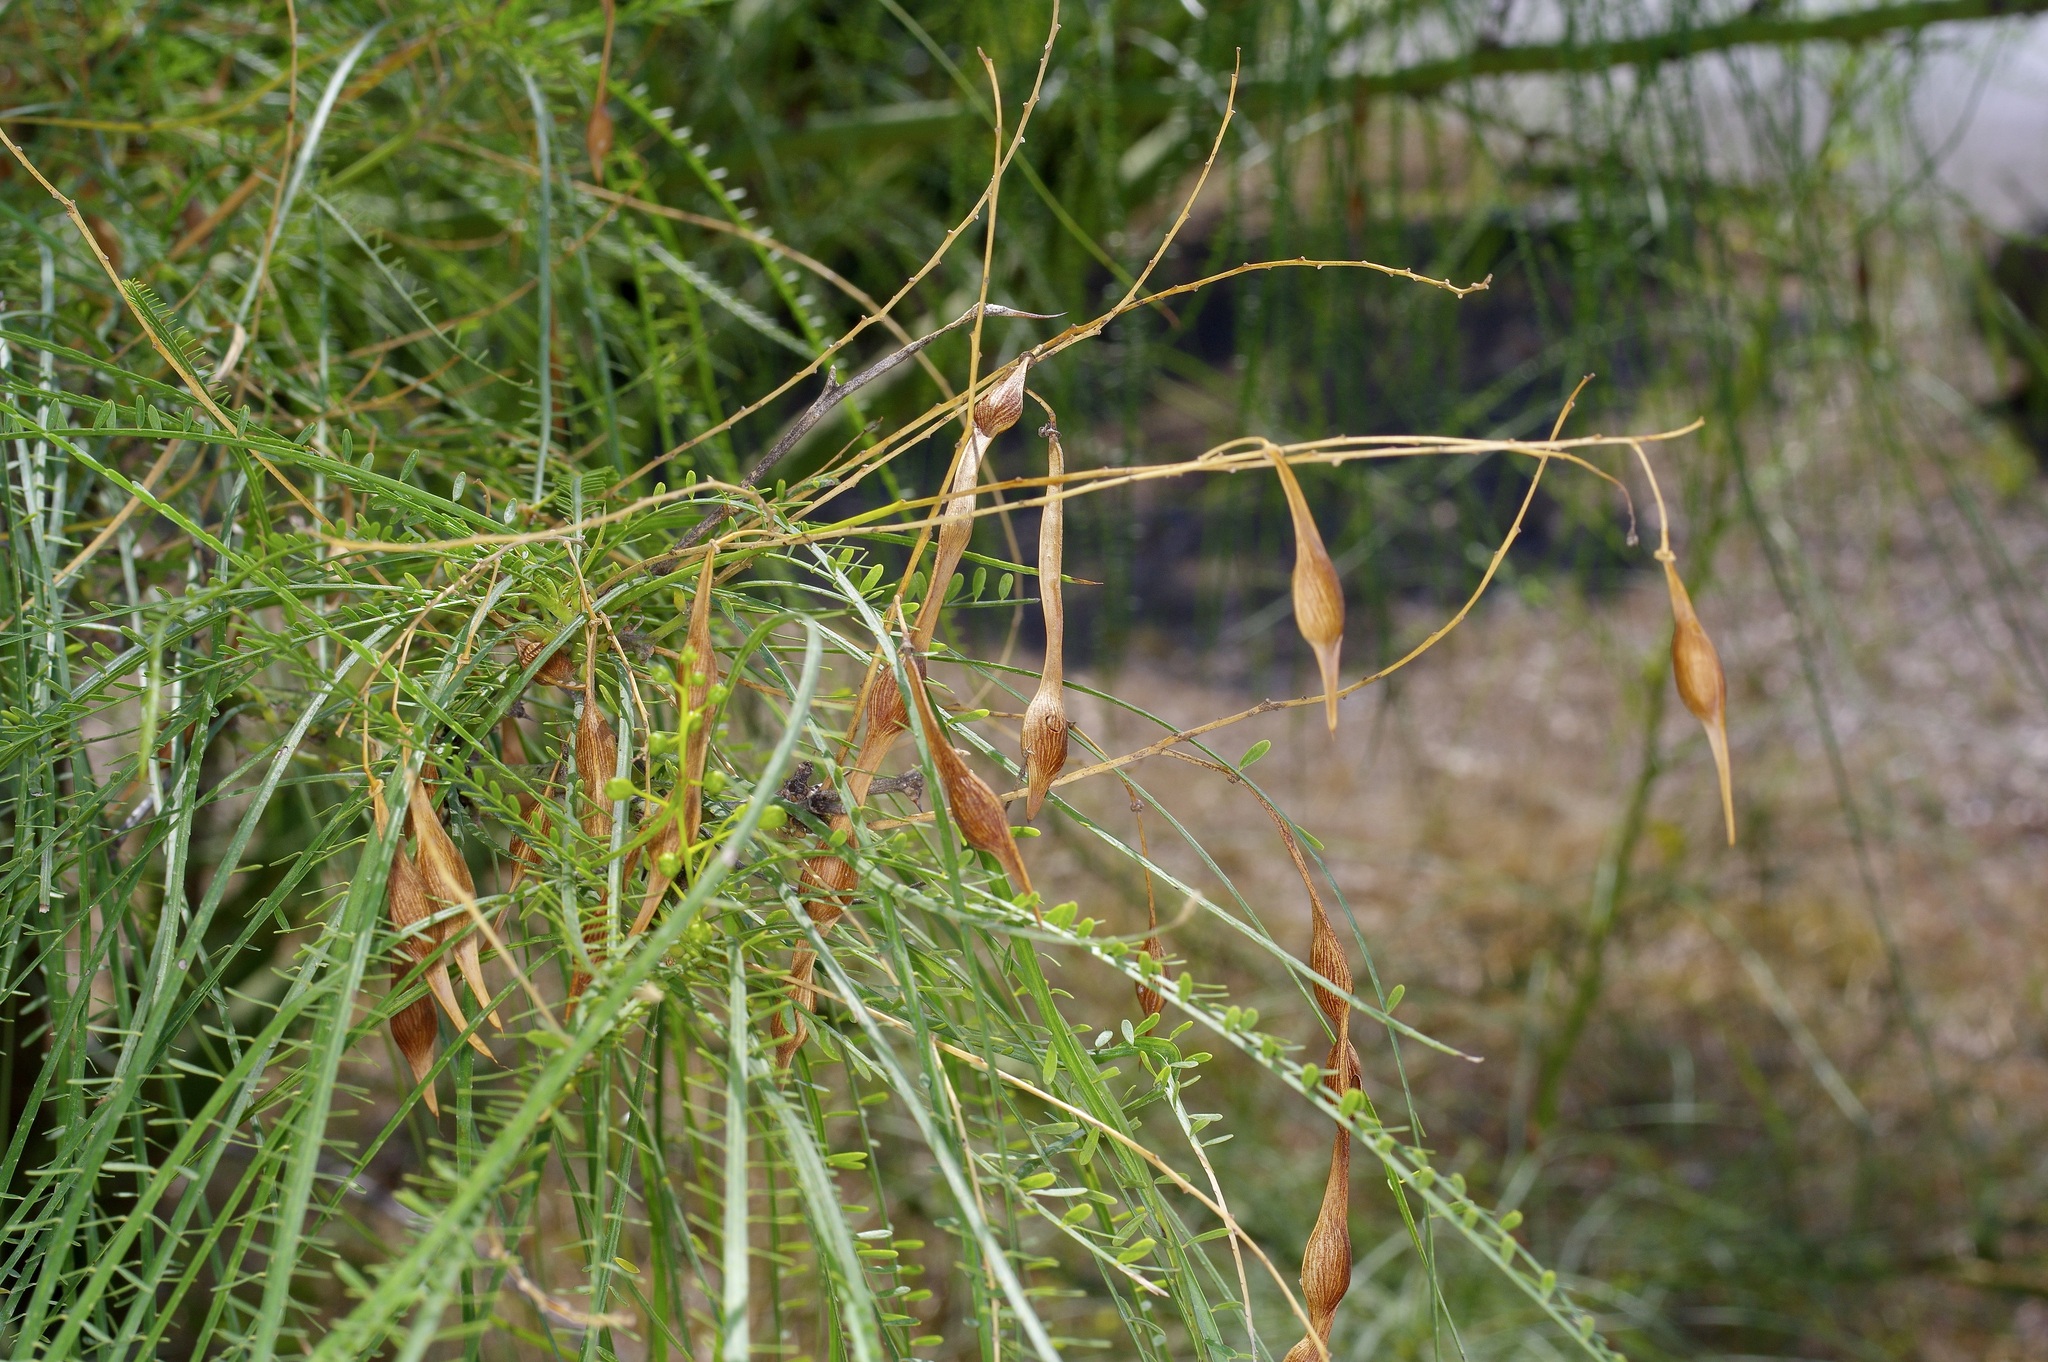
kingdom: Plantae
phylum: Tracheophyta
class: Magnoliopsida
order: Fabales
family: Fabaceae
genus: Parkinsonia
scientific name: Parkinsonia aculeata
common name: Jerusalem thorn
